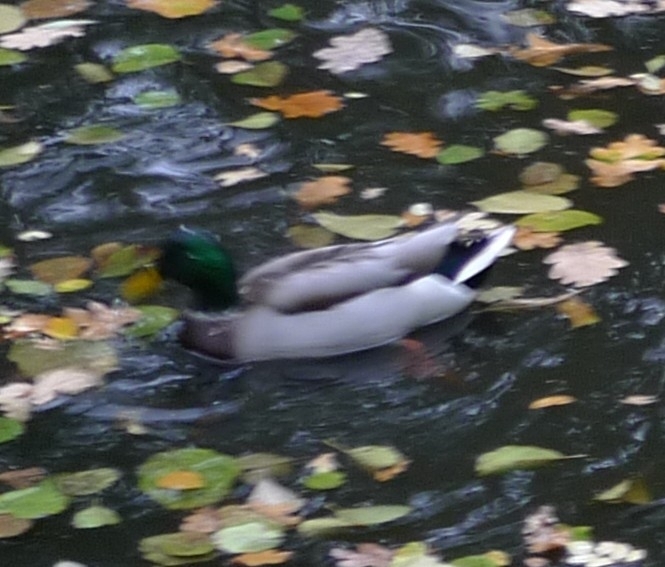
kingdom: Animalia
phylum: Chordata
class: Aves
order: Anseriformes
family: Anatidae
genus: Anas
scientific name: Anas platyrhynchos
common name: Mallard
